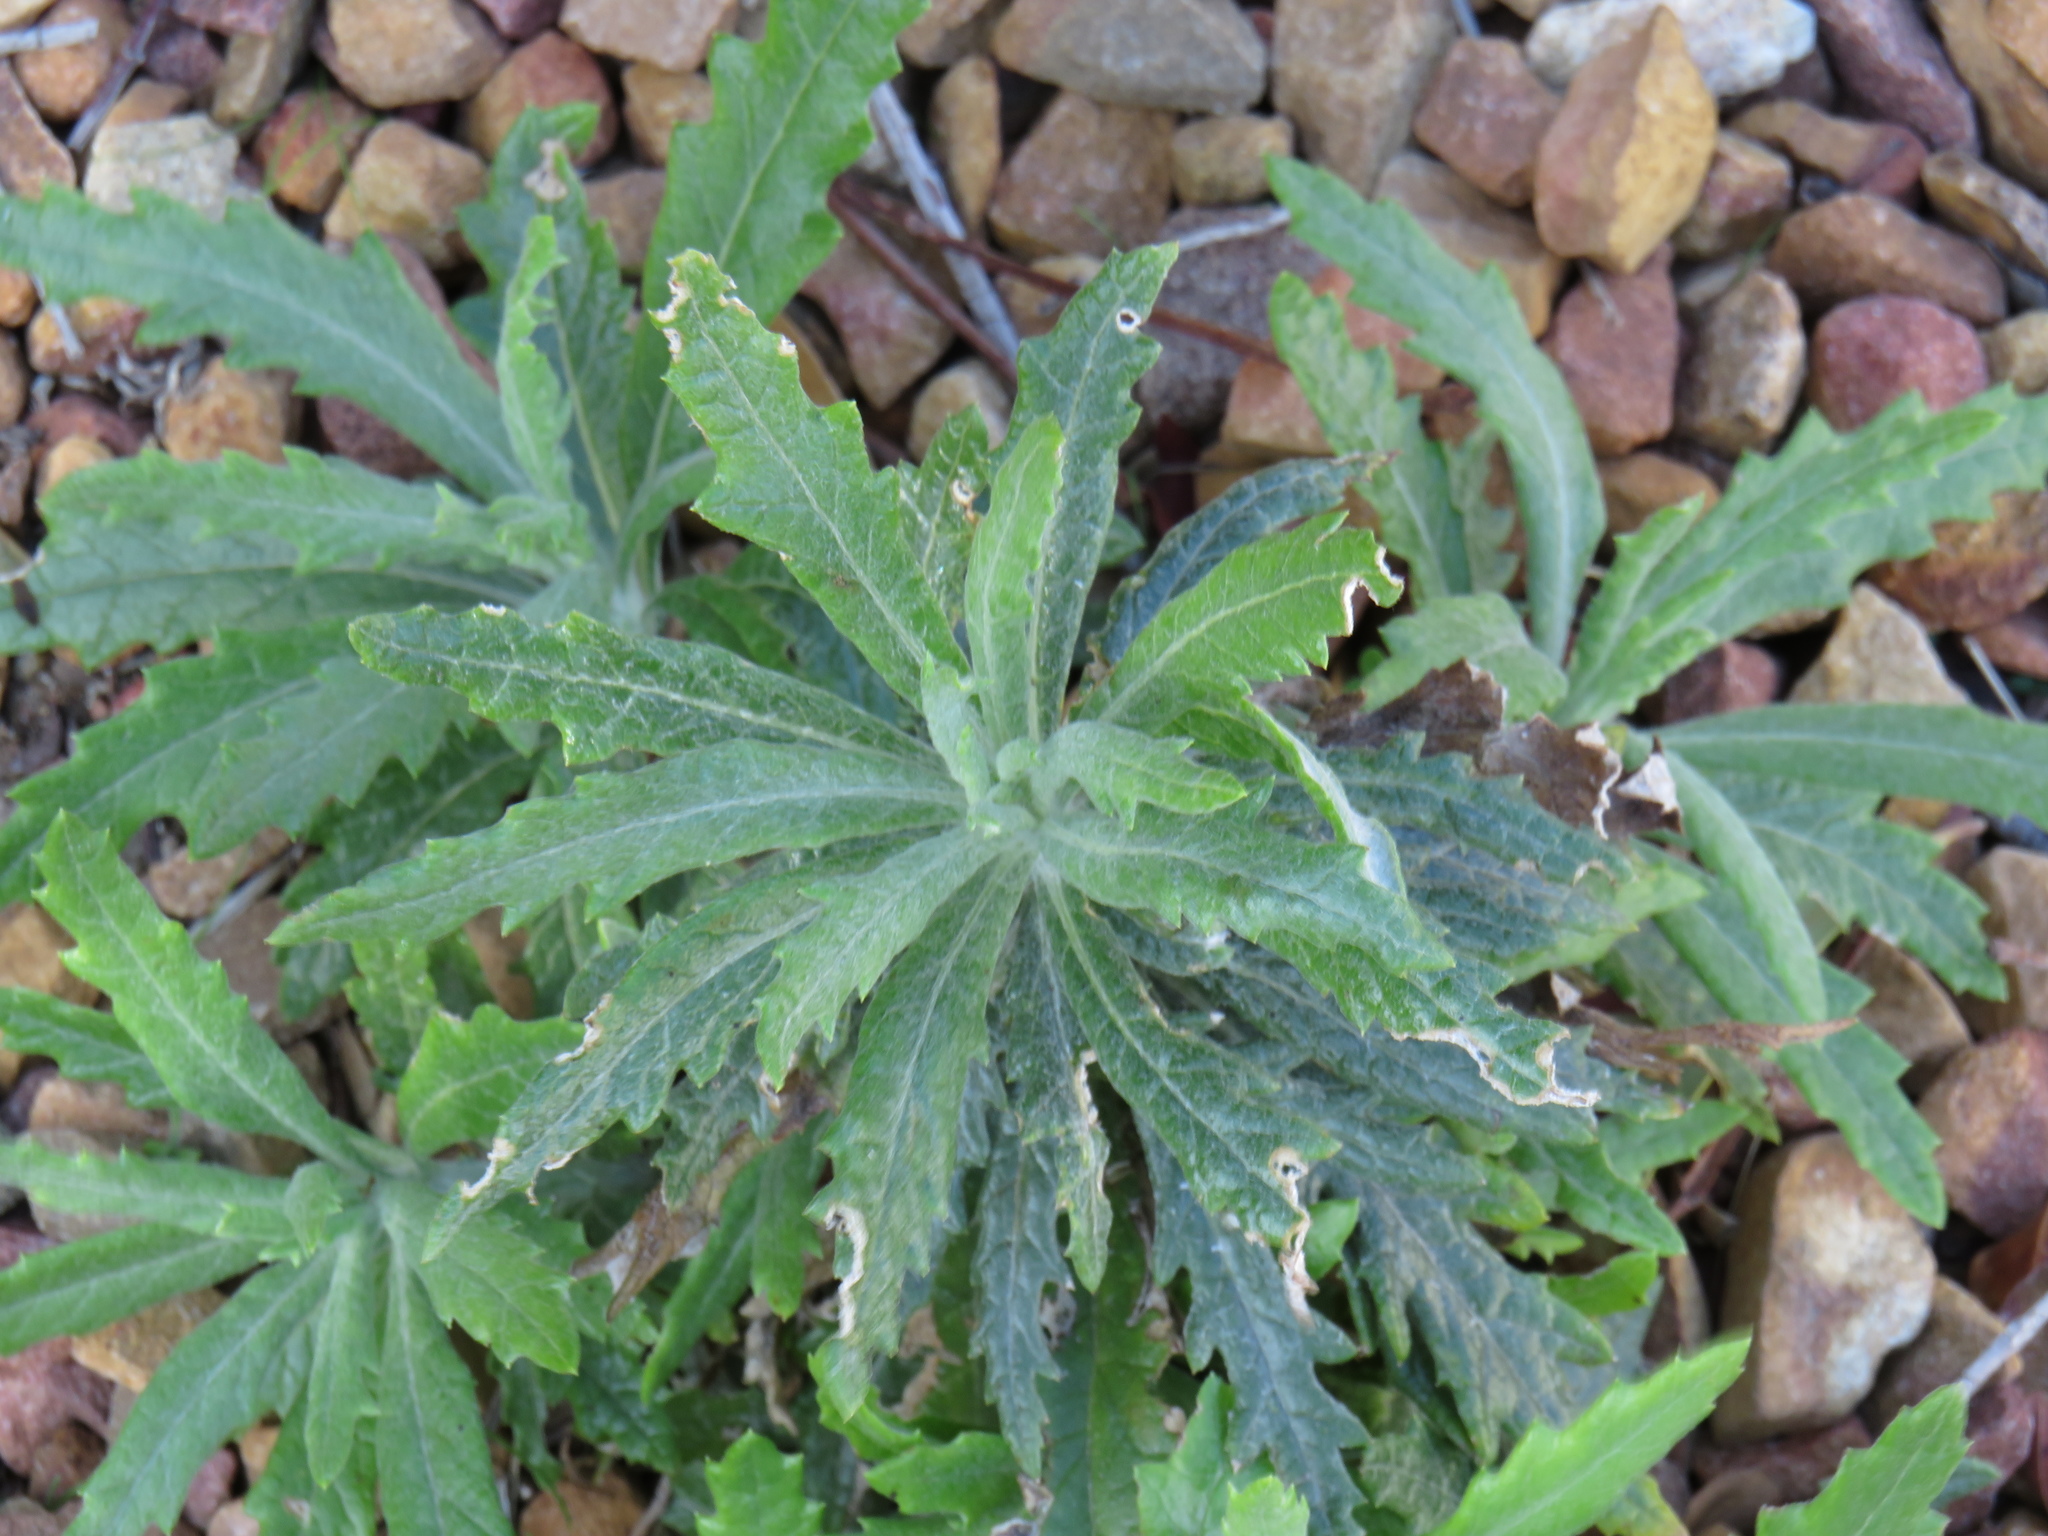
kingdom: Plantae
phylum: Tracheophyta
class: Magnoliopsida
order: Asterales
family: Asteraceae
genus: Senecio
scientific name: Senecio pterophorus
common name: Shoddy ragwort
